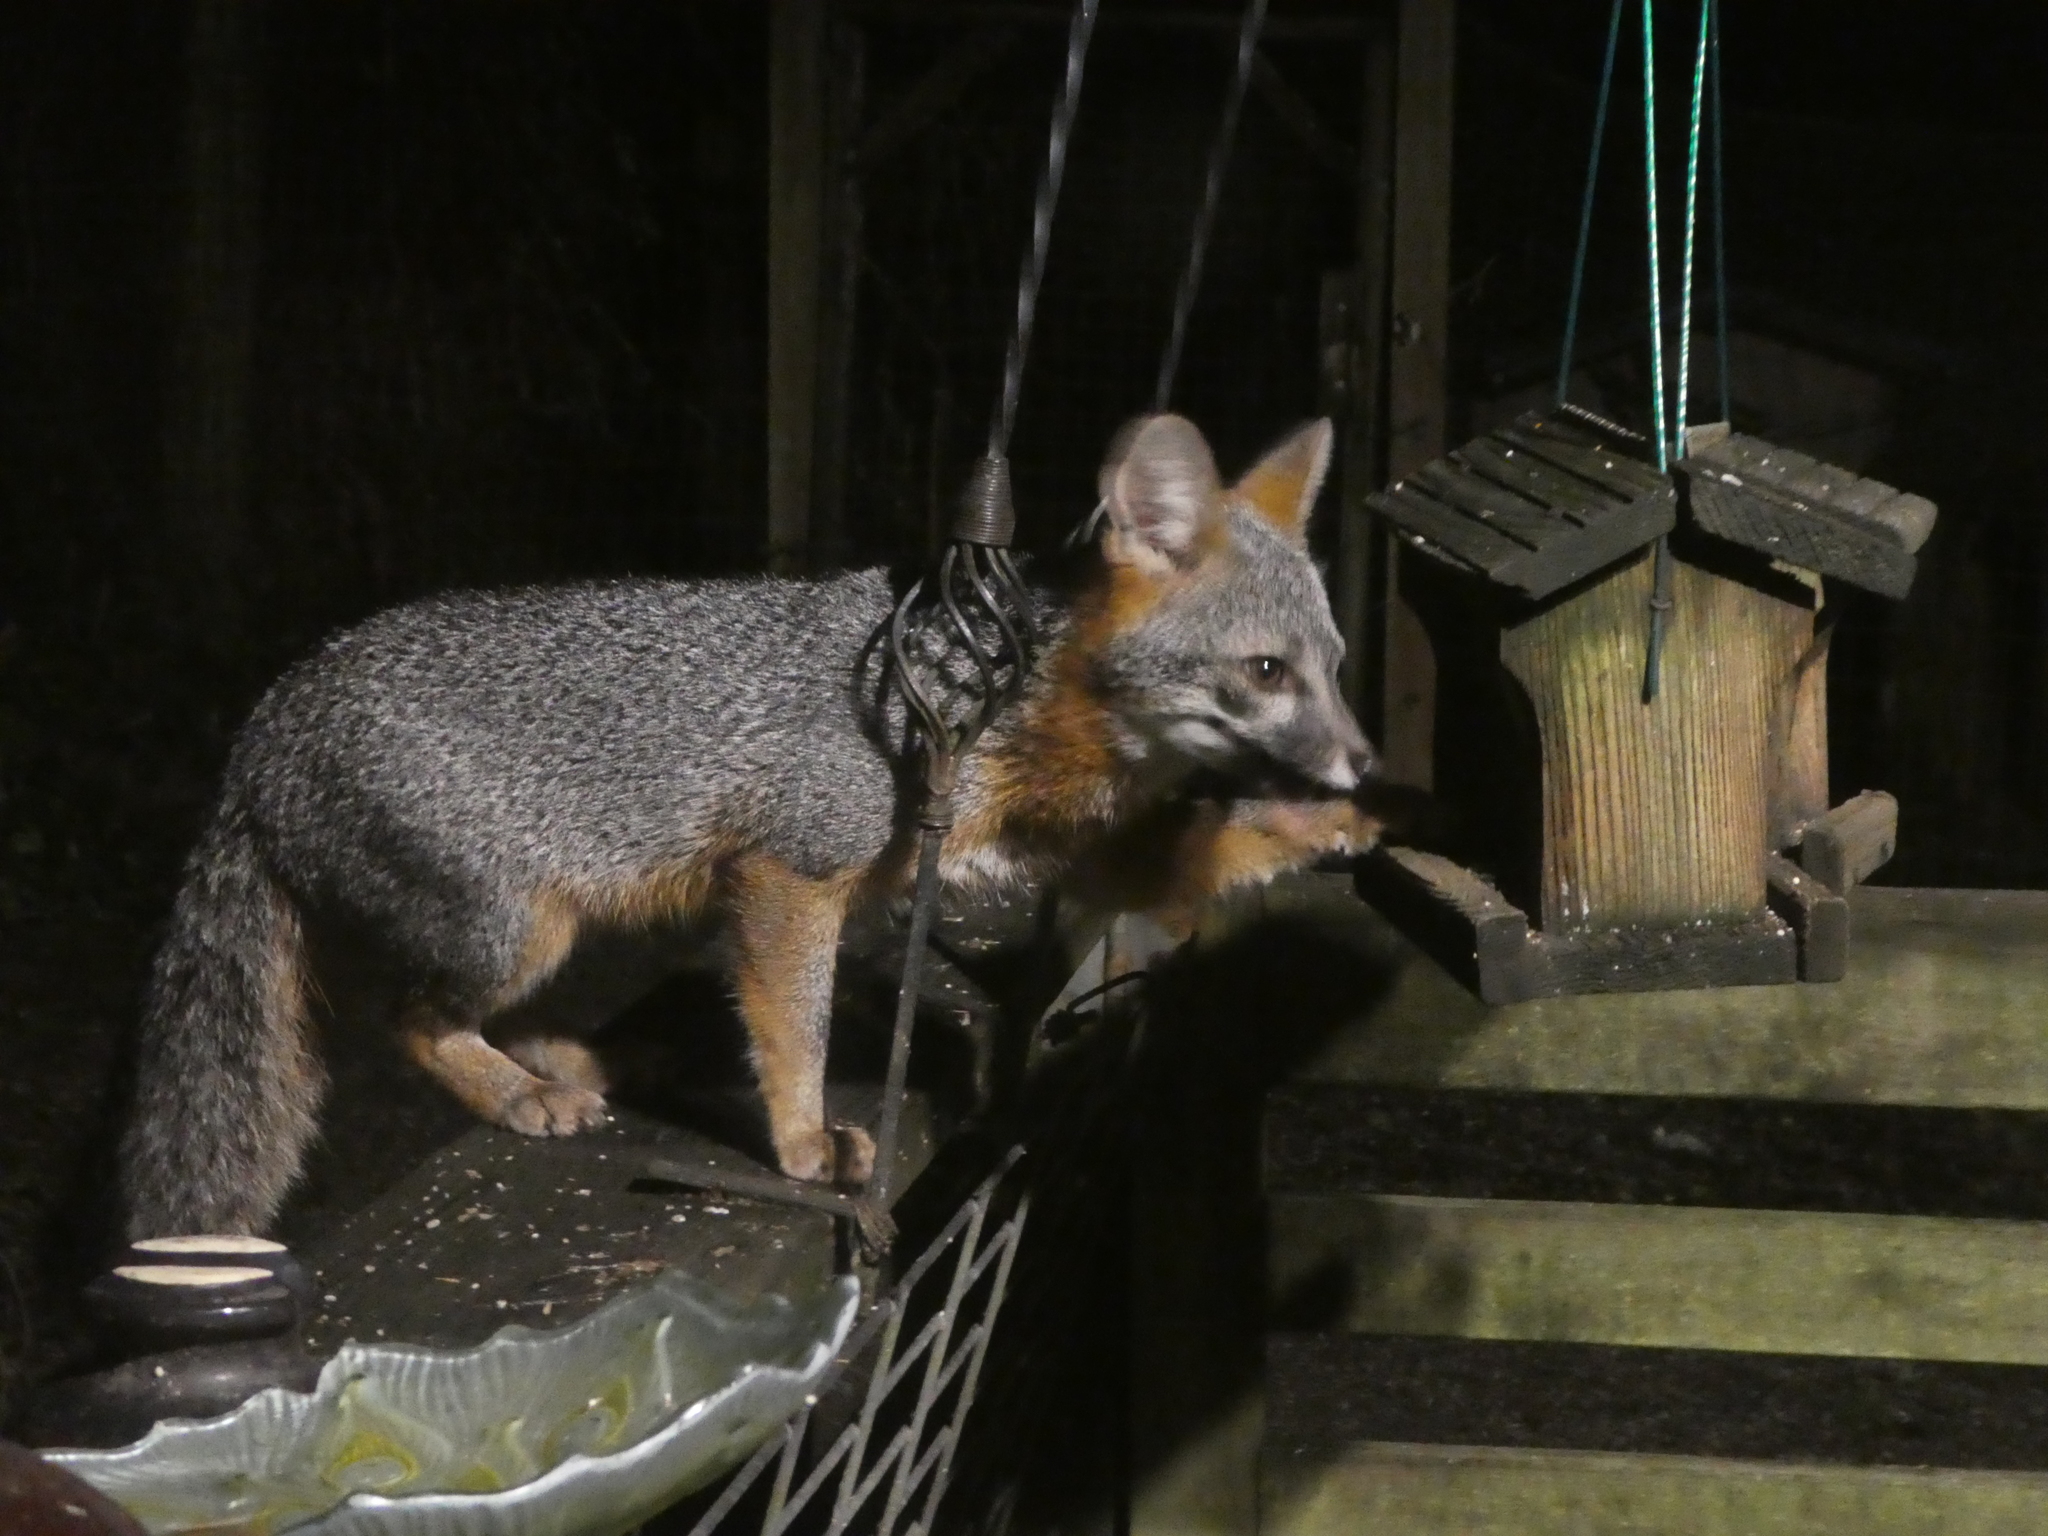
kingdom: Animalia
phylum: Chordata
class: Mammalia
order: Carnivora
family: Canidae
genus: Urocyon
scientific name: Urocyon cinereoargenteus
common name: Gray fox
